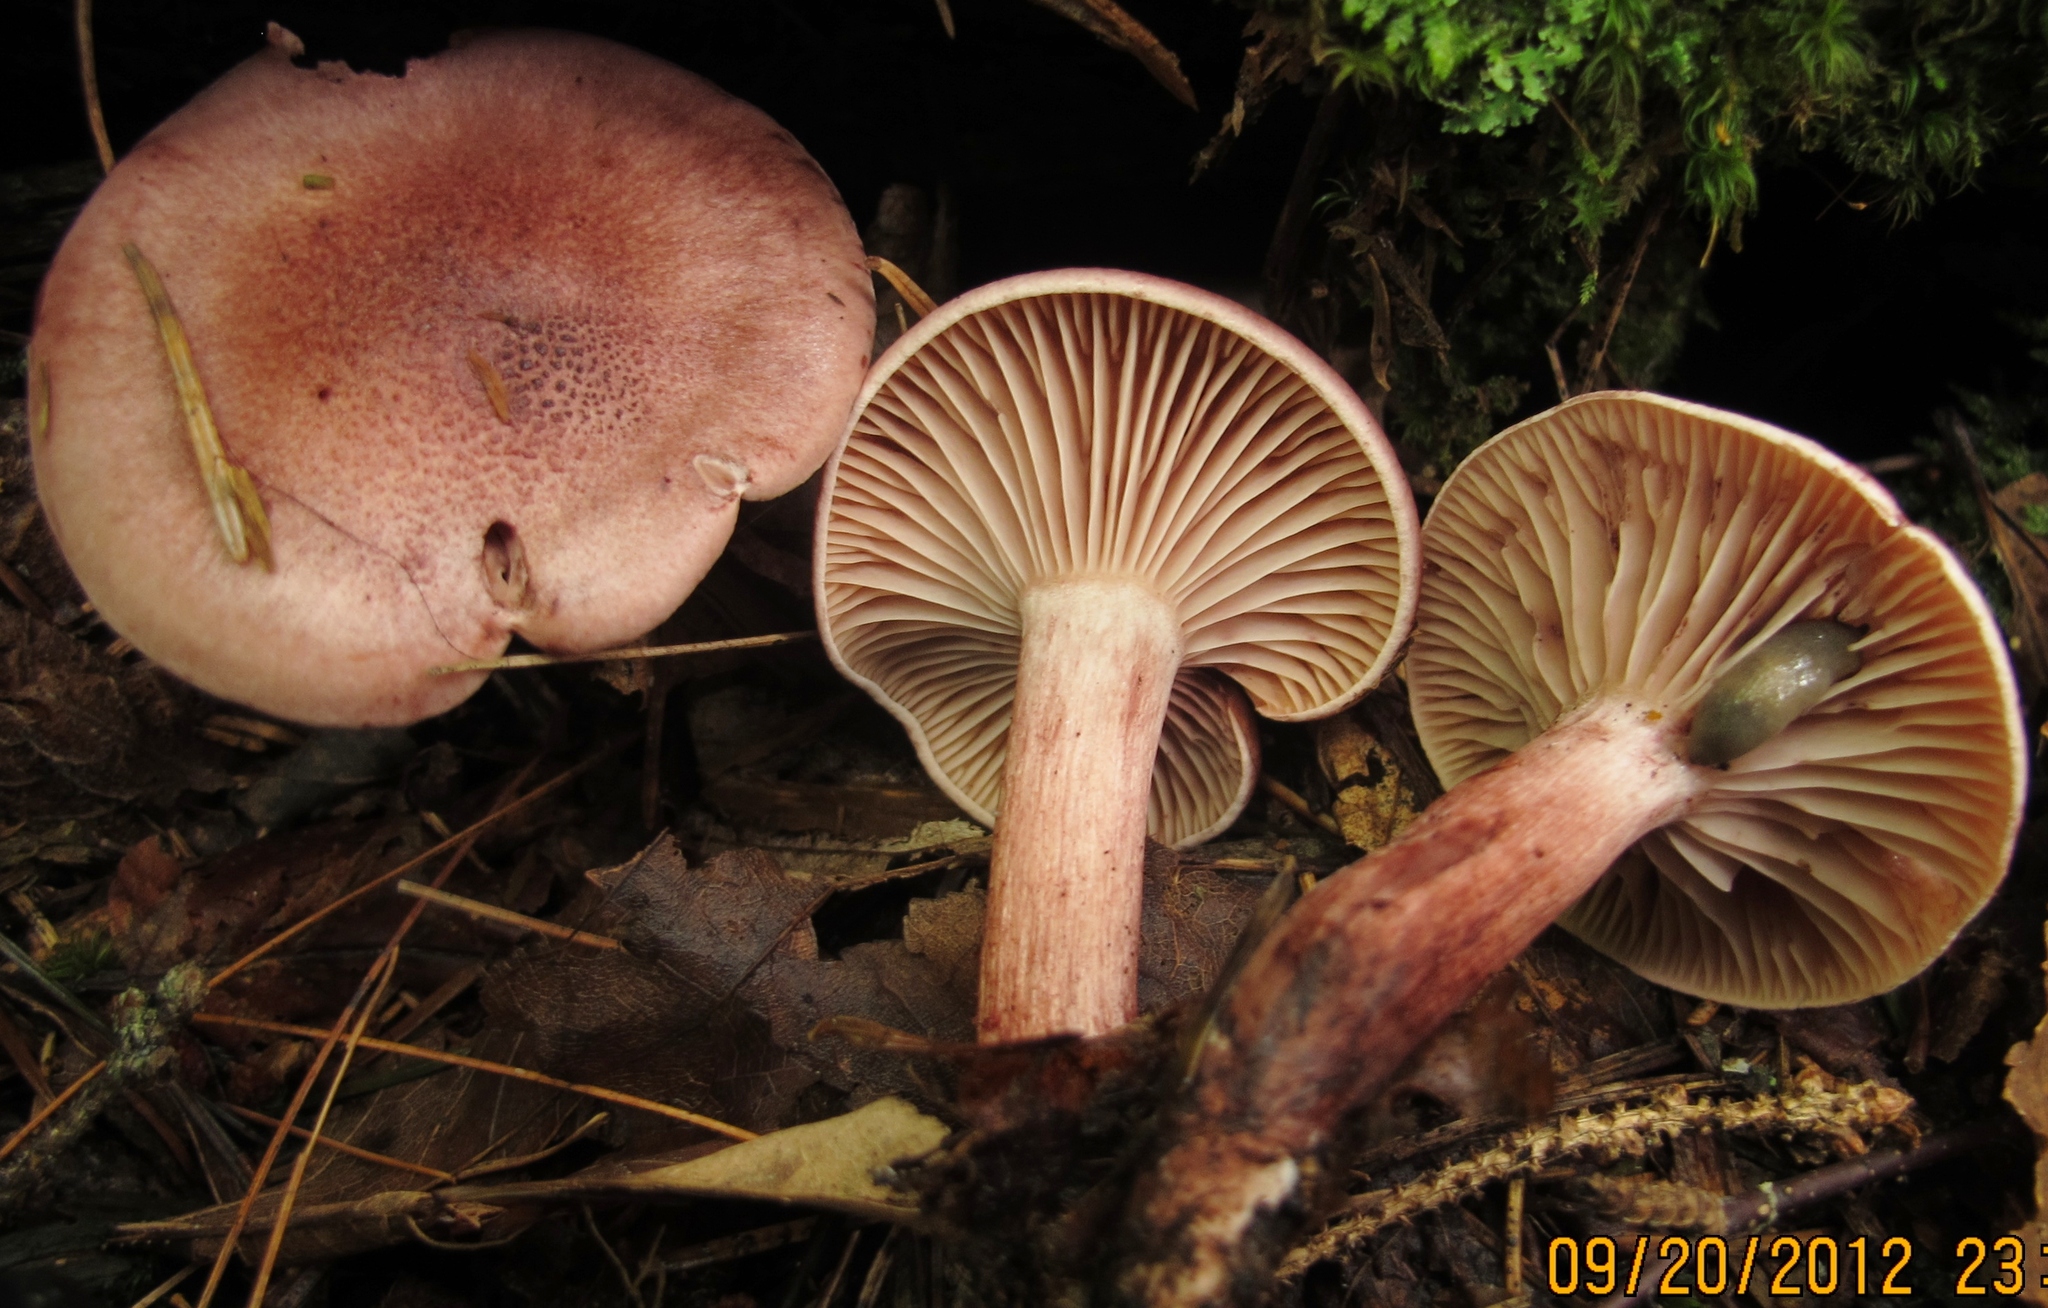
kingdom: Fungi
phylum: Basidiomycota
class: Agaricomycetes
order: Agaricales
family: Hygrophoraceae
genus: Hygrophorus
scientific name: Hygrophorus capreolarius
